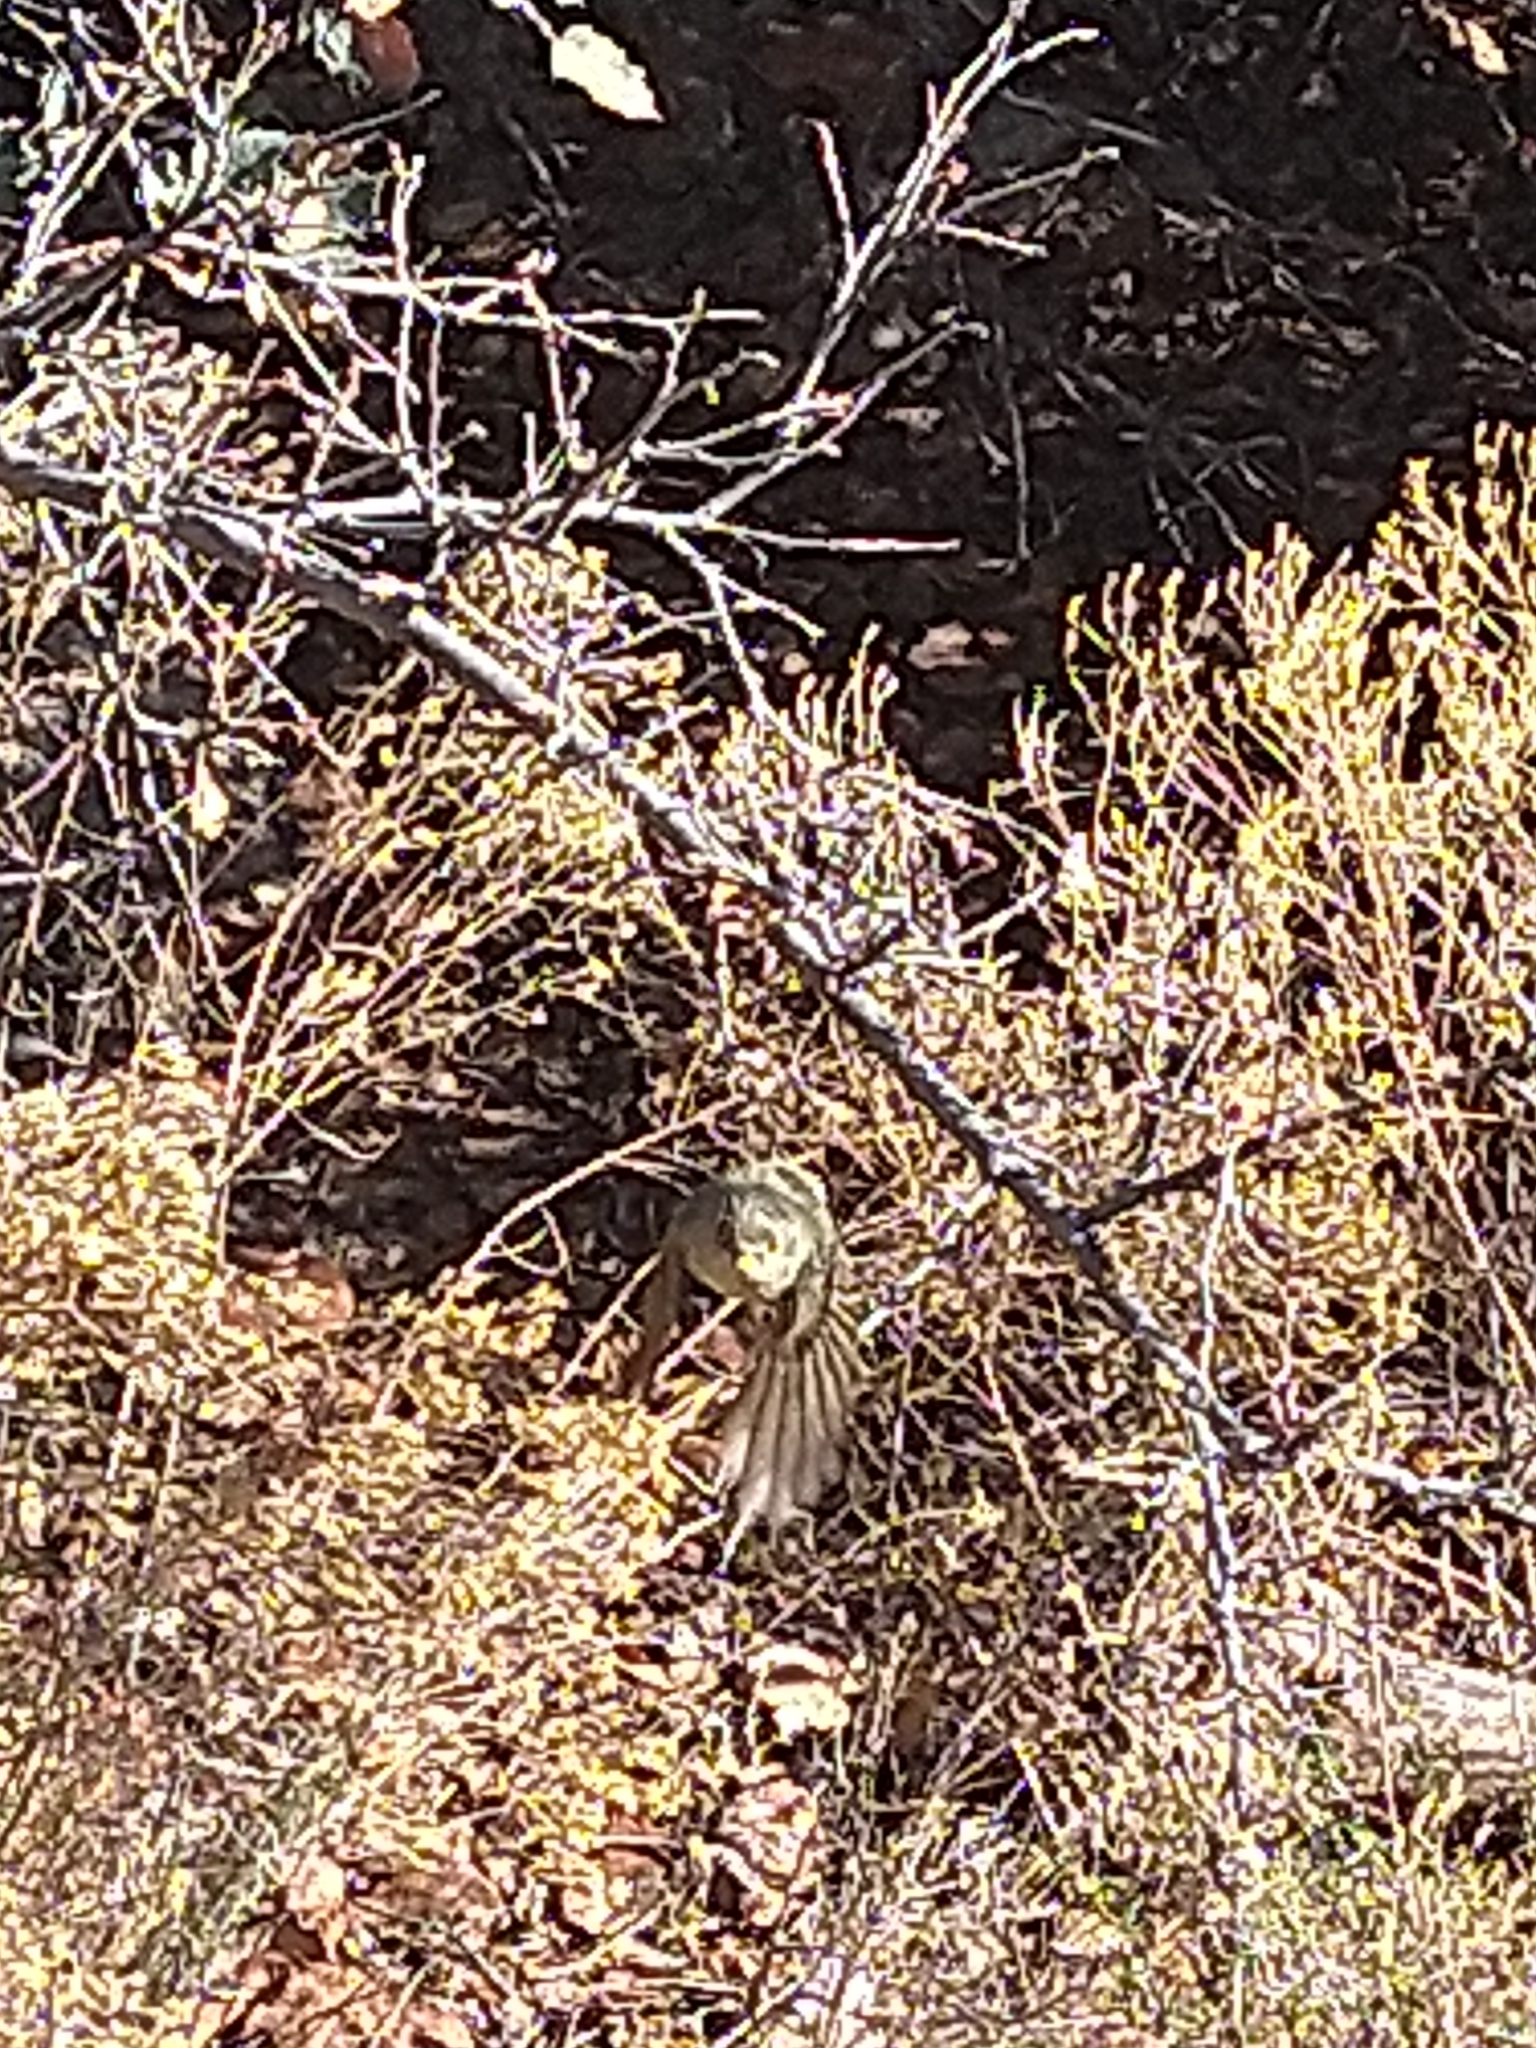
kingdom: Animalia
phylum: Chordata
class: Aves
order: Passeriformes
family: Regulidae
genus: Regulus
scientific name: Regulus calendula
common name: Ruby-crowned kinglet
